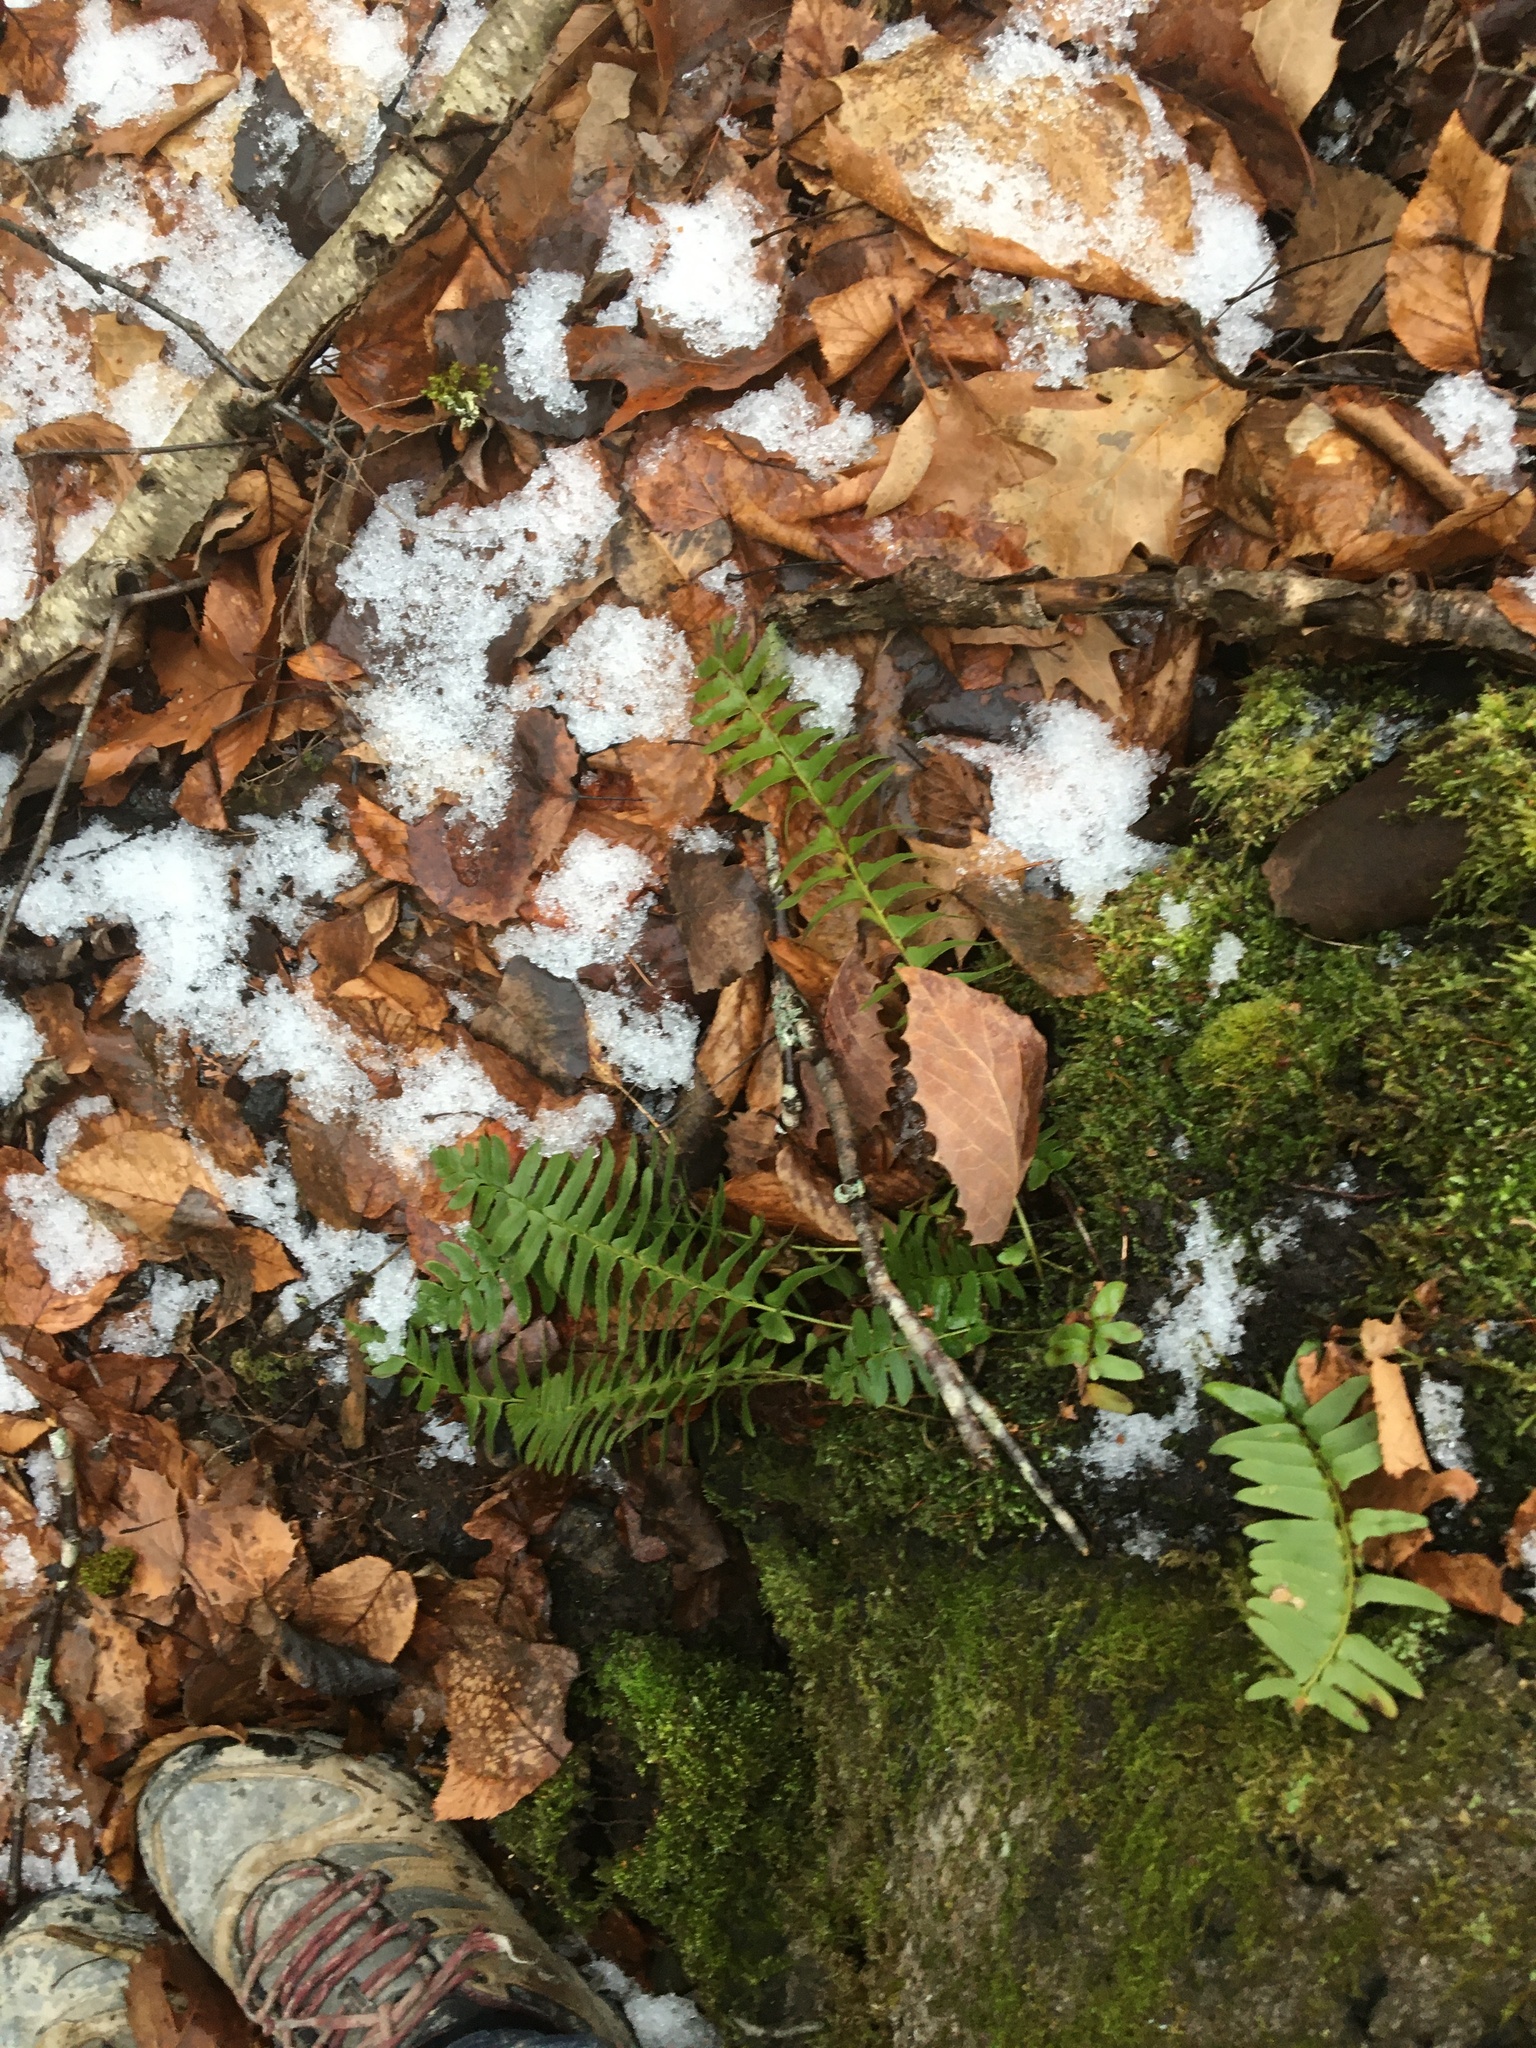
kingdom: Plantae
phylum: Tracheophyta
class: Polypodiopsida
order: Polypodiales
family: Dryopteridaceae
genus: Polystichum
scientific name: Polystichum acrostichoides
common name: Christmas fern
